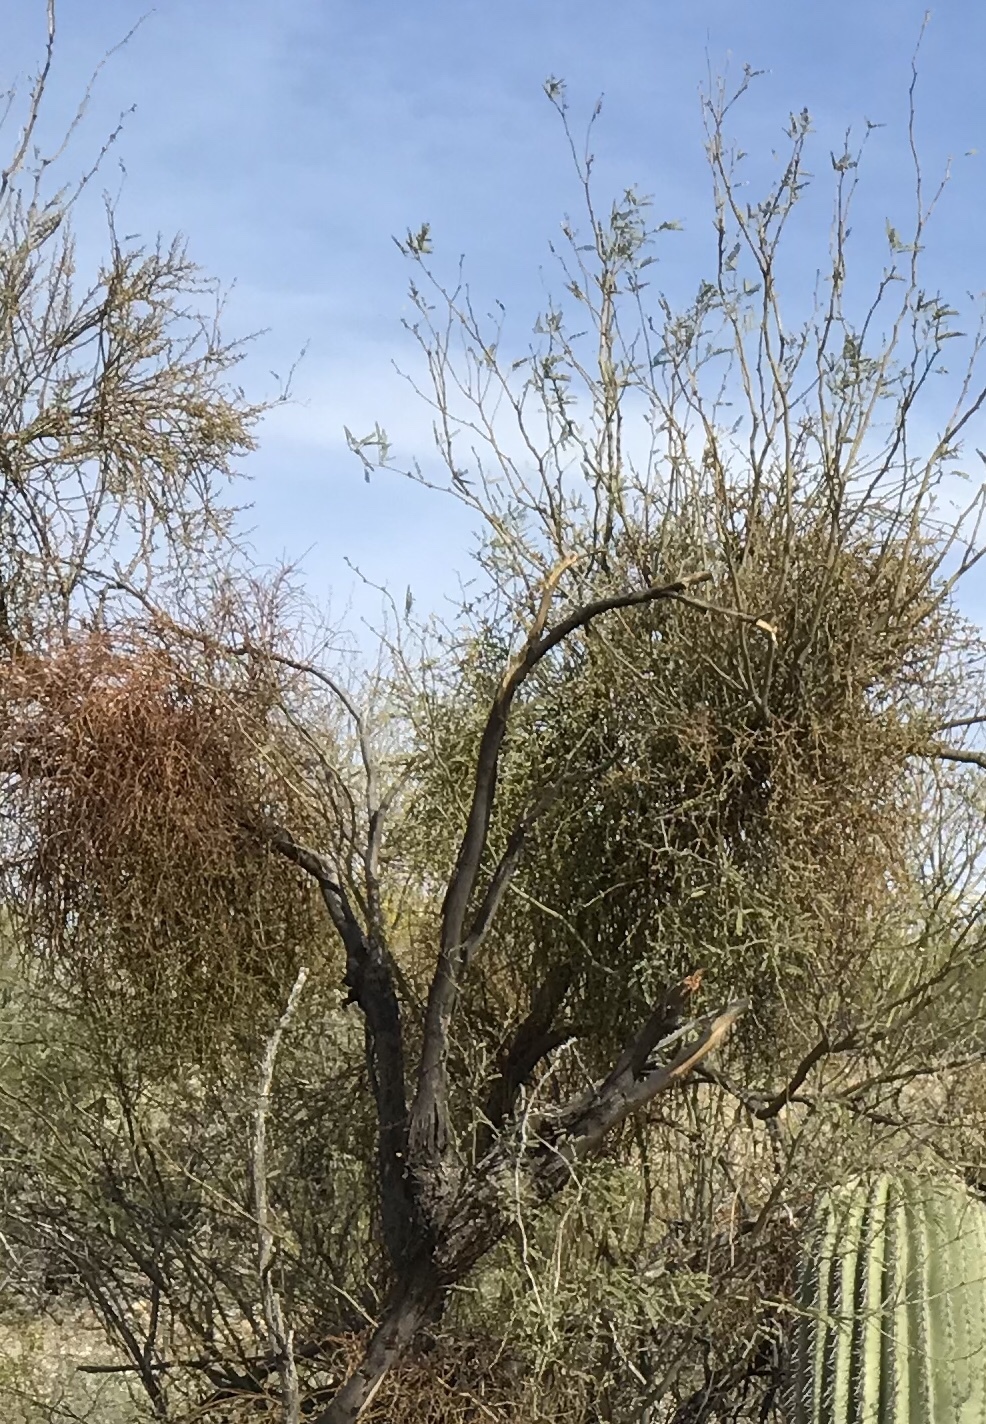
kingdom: Plantae
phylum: Tracheophyta
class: Magnoliopsida
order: Santalales
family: Viscaceae
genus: Phoradendron
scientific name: Phoradendron californicum
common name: Acacia mistletoe
